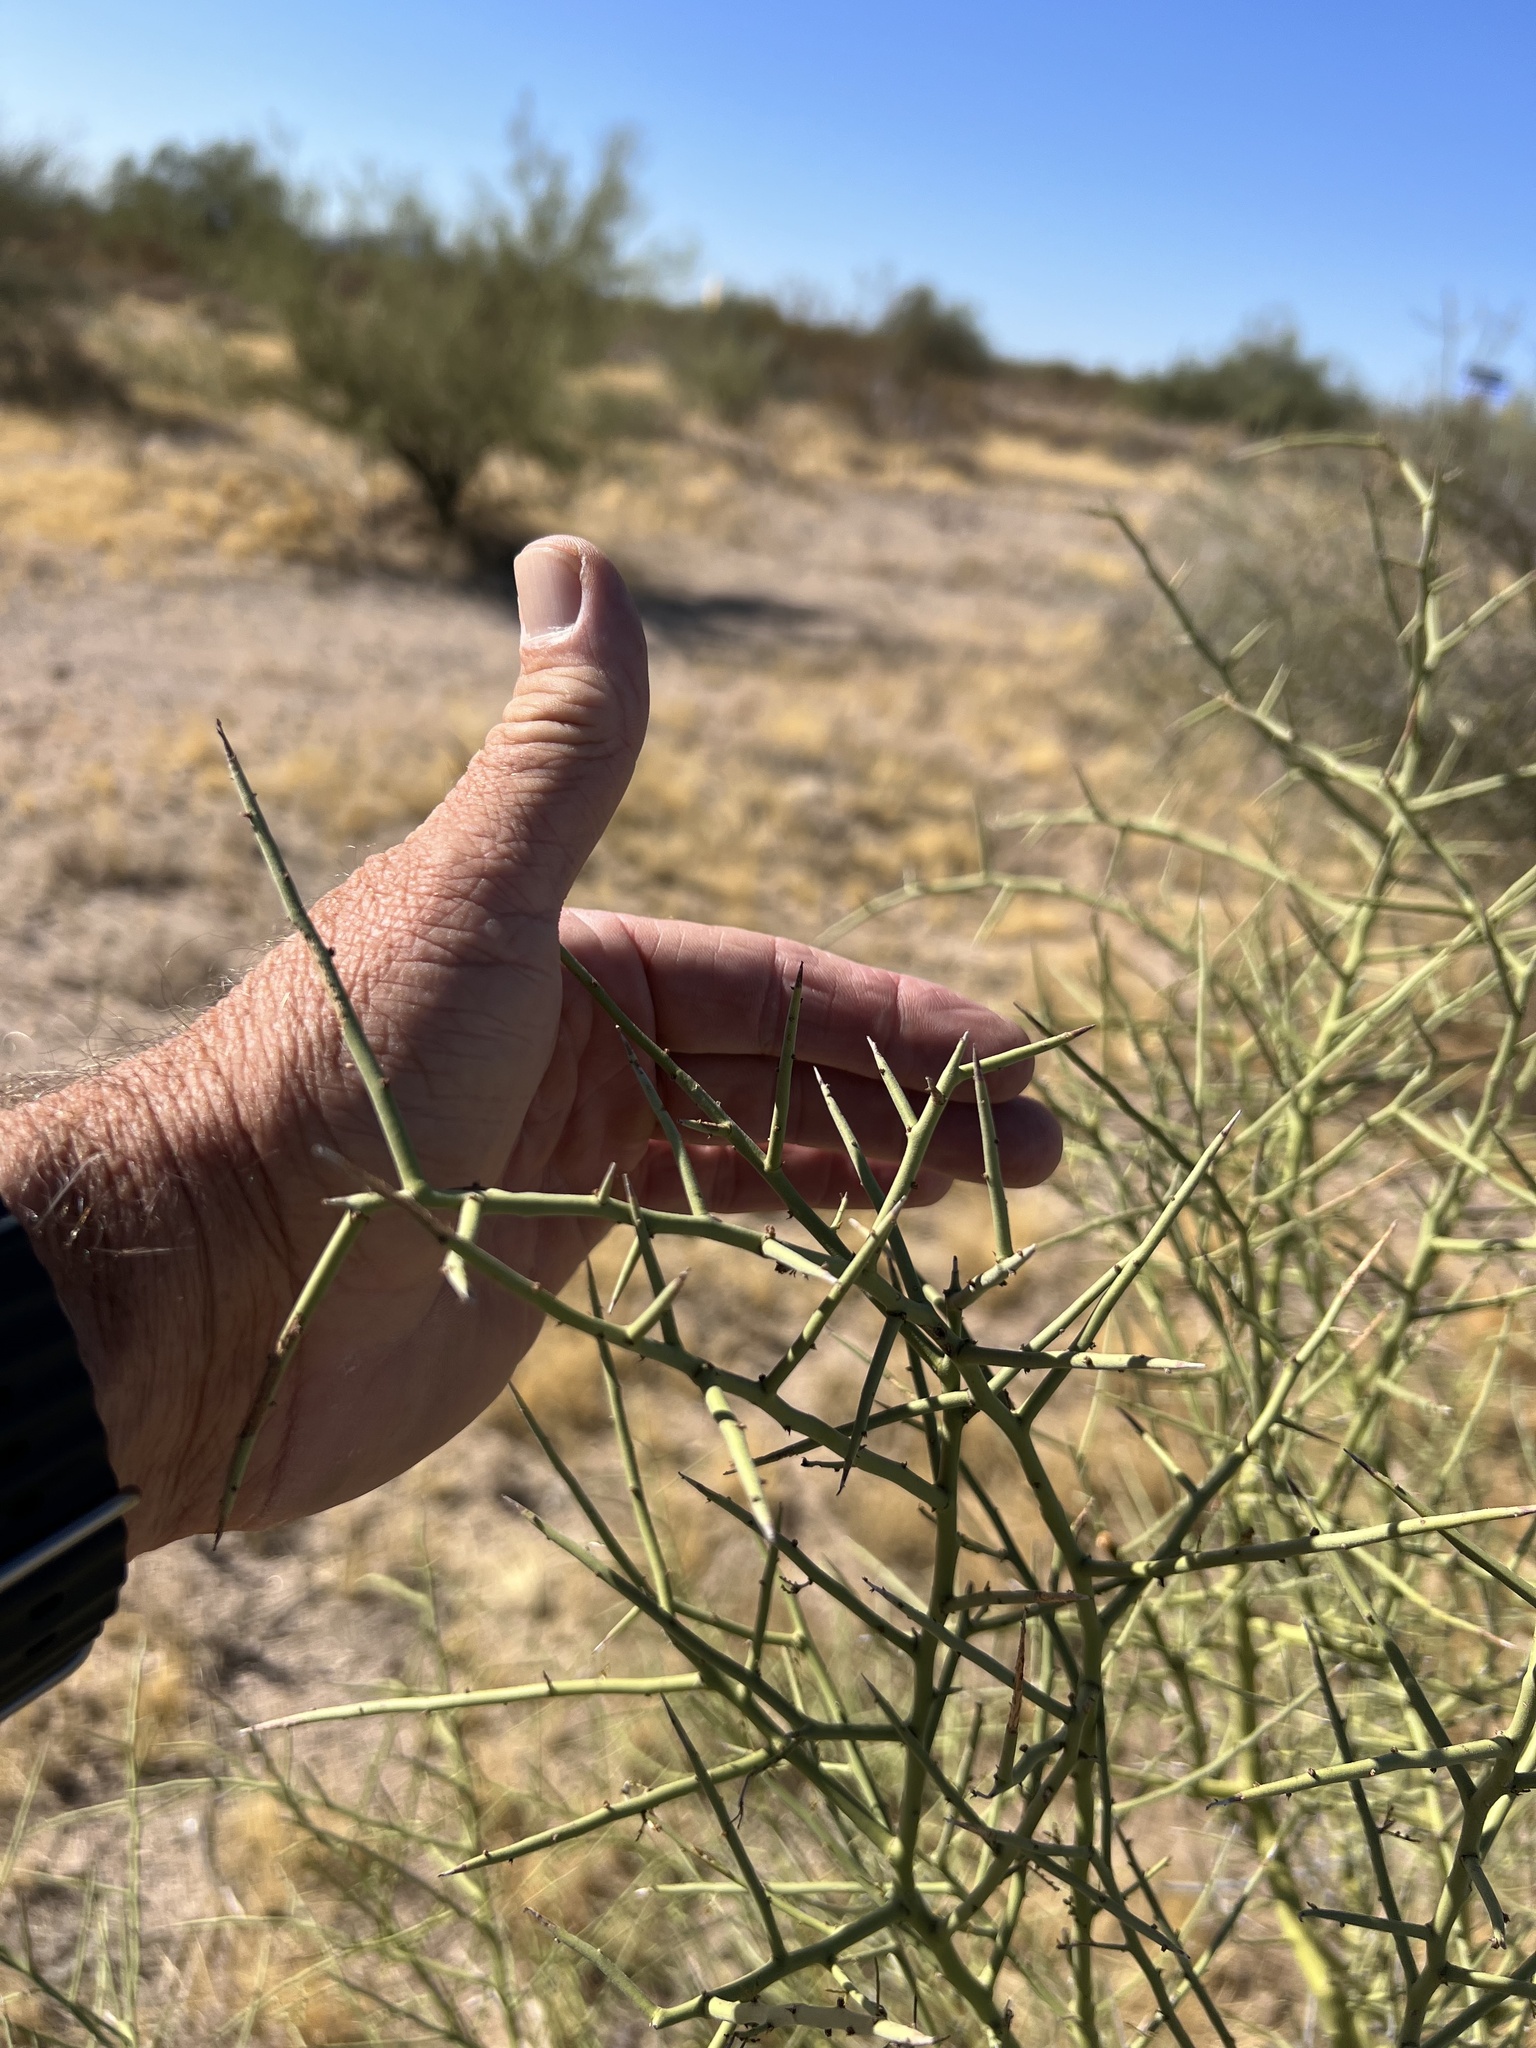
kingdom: Plantae
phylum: Tracheophyta
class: Magnoliopsida
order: Fabales
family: Fabaceae
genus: Parkinsonia
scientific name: Parkinsonia microphylla
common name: Yellow paloverde
